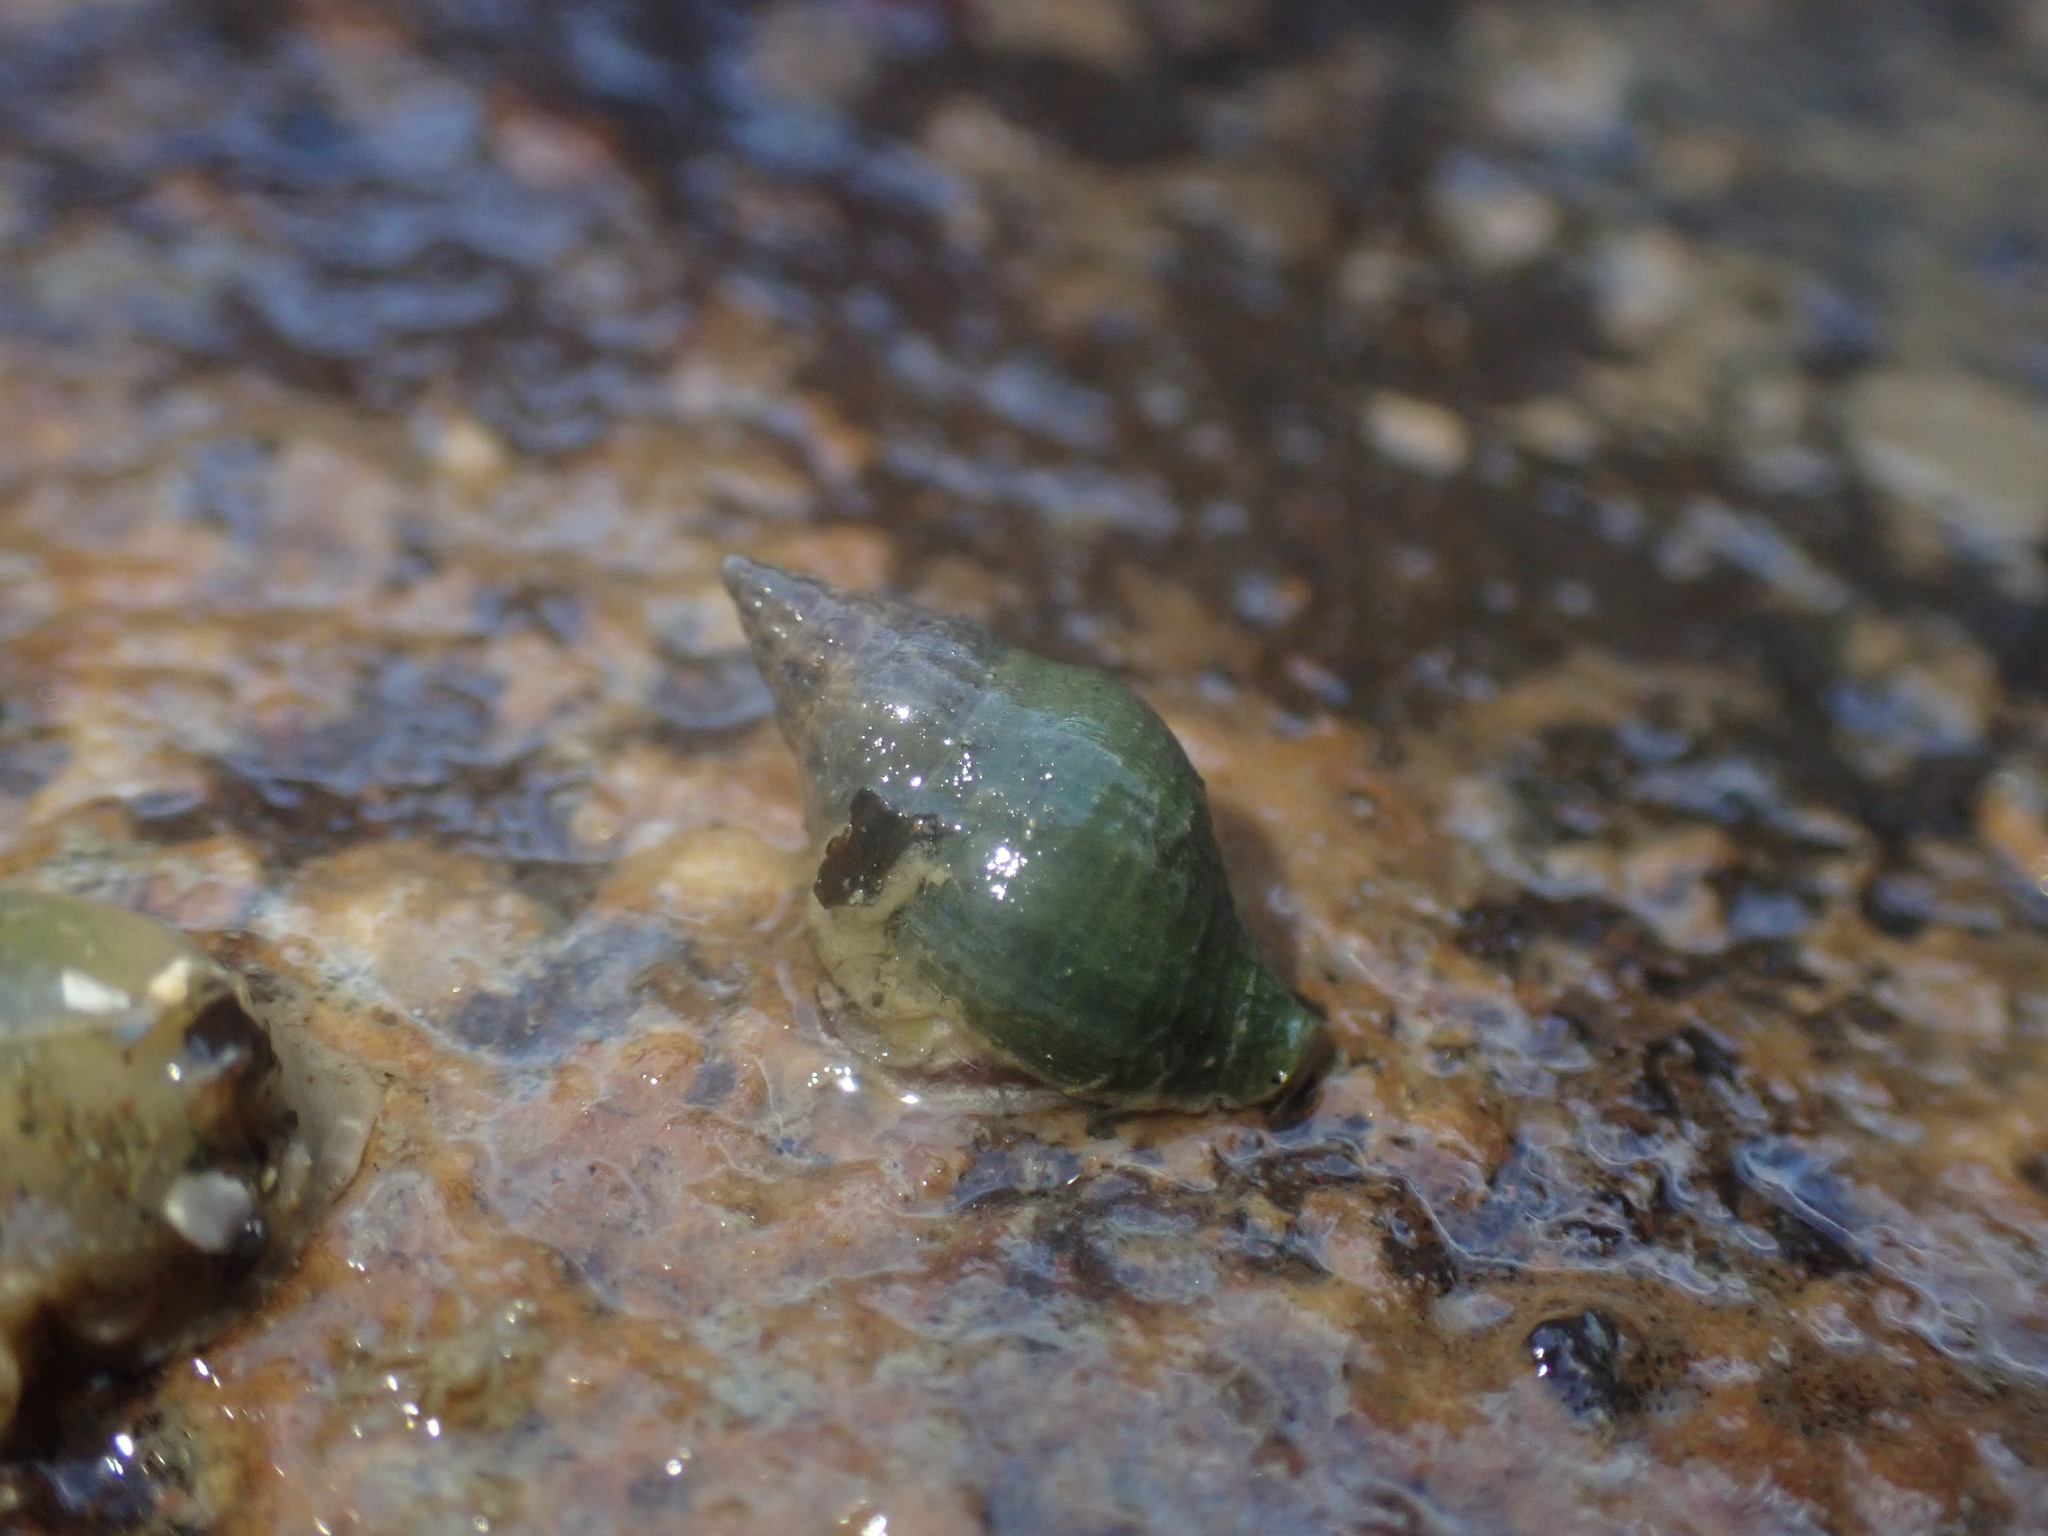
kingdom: Animalia
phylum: Mollusca
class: Gastropoda
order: Neogastropoda
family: Tudiclidae
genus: Buccinulum
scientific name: Buccinulum vittatum
